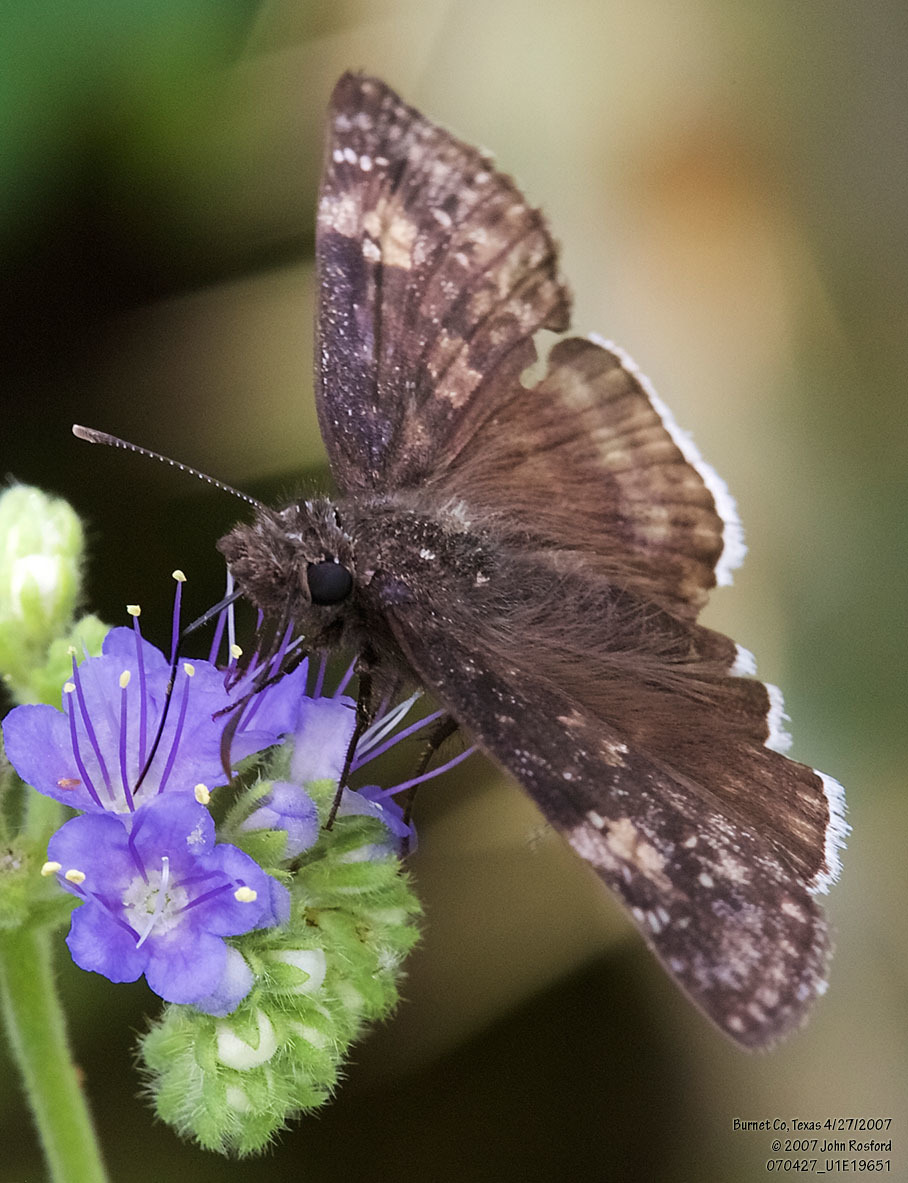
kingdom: Animalia
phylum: Arthropoda
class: Insecta
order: Lepidoptera
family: Hesperiidae
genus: Erynnis
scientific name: Erynnis funeralis
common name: Funereal duskywing
